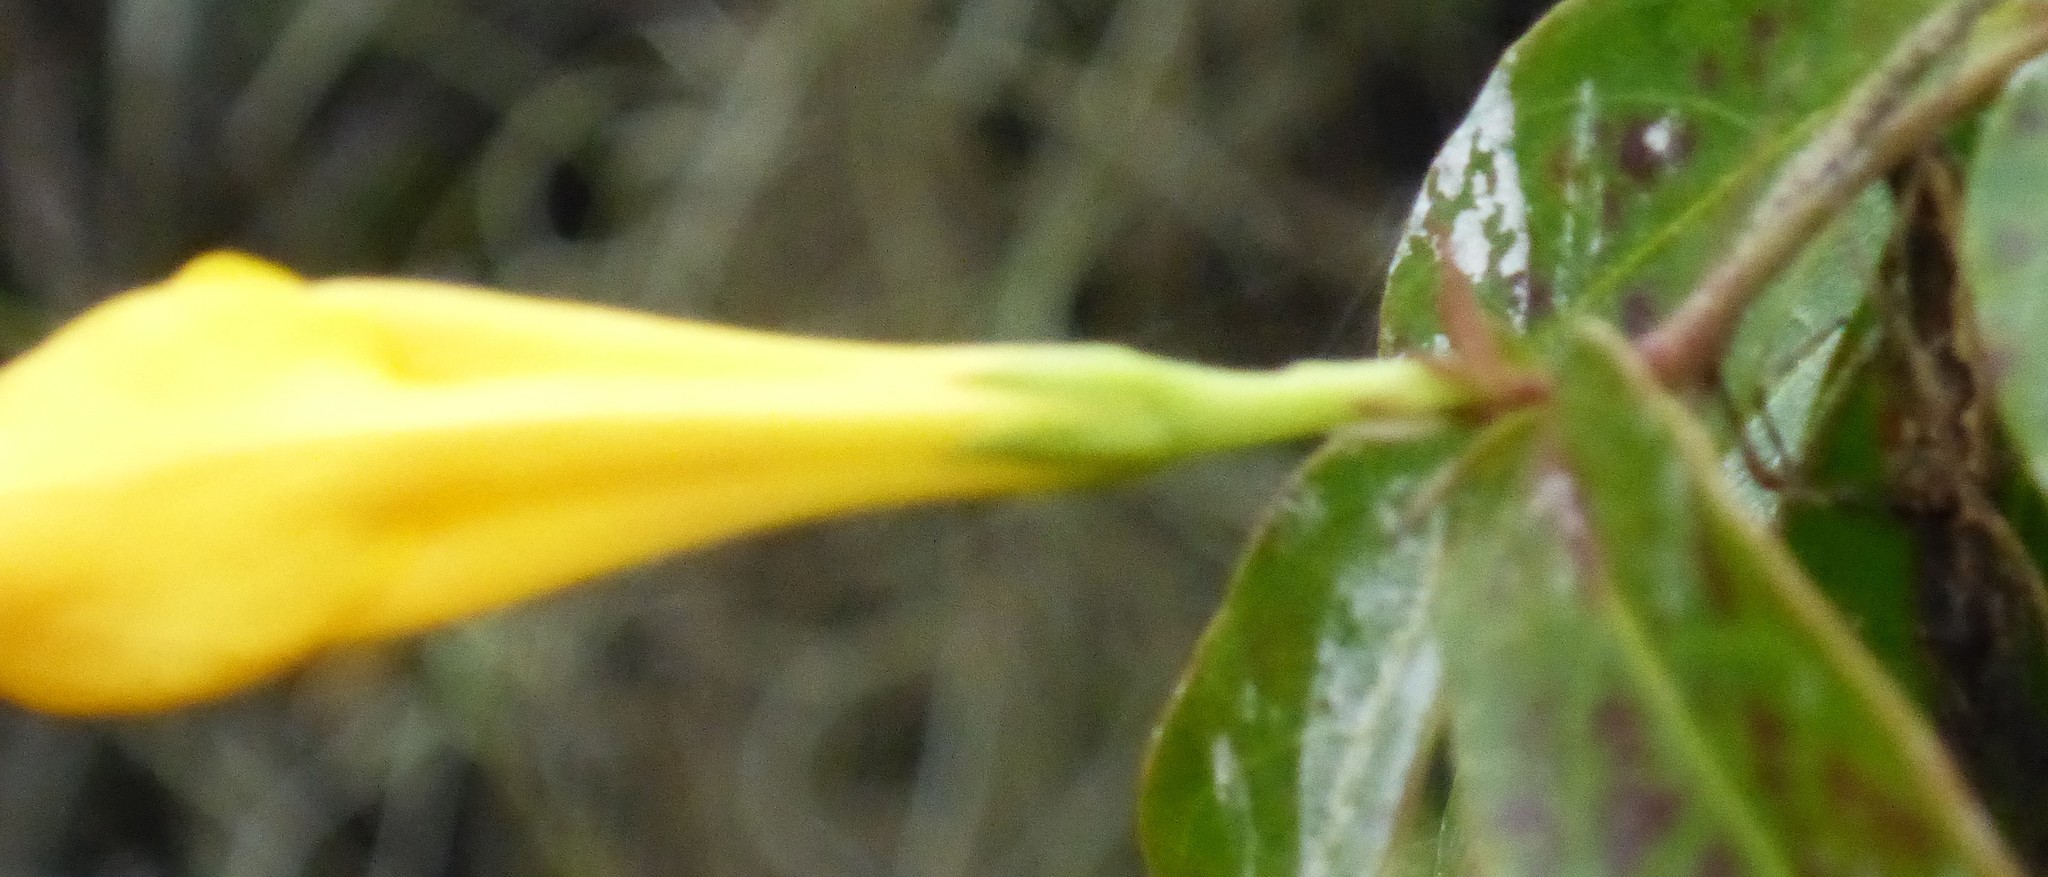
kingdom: Plantae
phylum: Tracheophyta
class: Magnoliopsida
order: Gentianales
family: Gelsemiaceae
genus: Gelsemium
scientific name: Gelsemium rankinii
